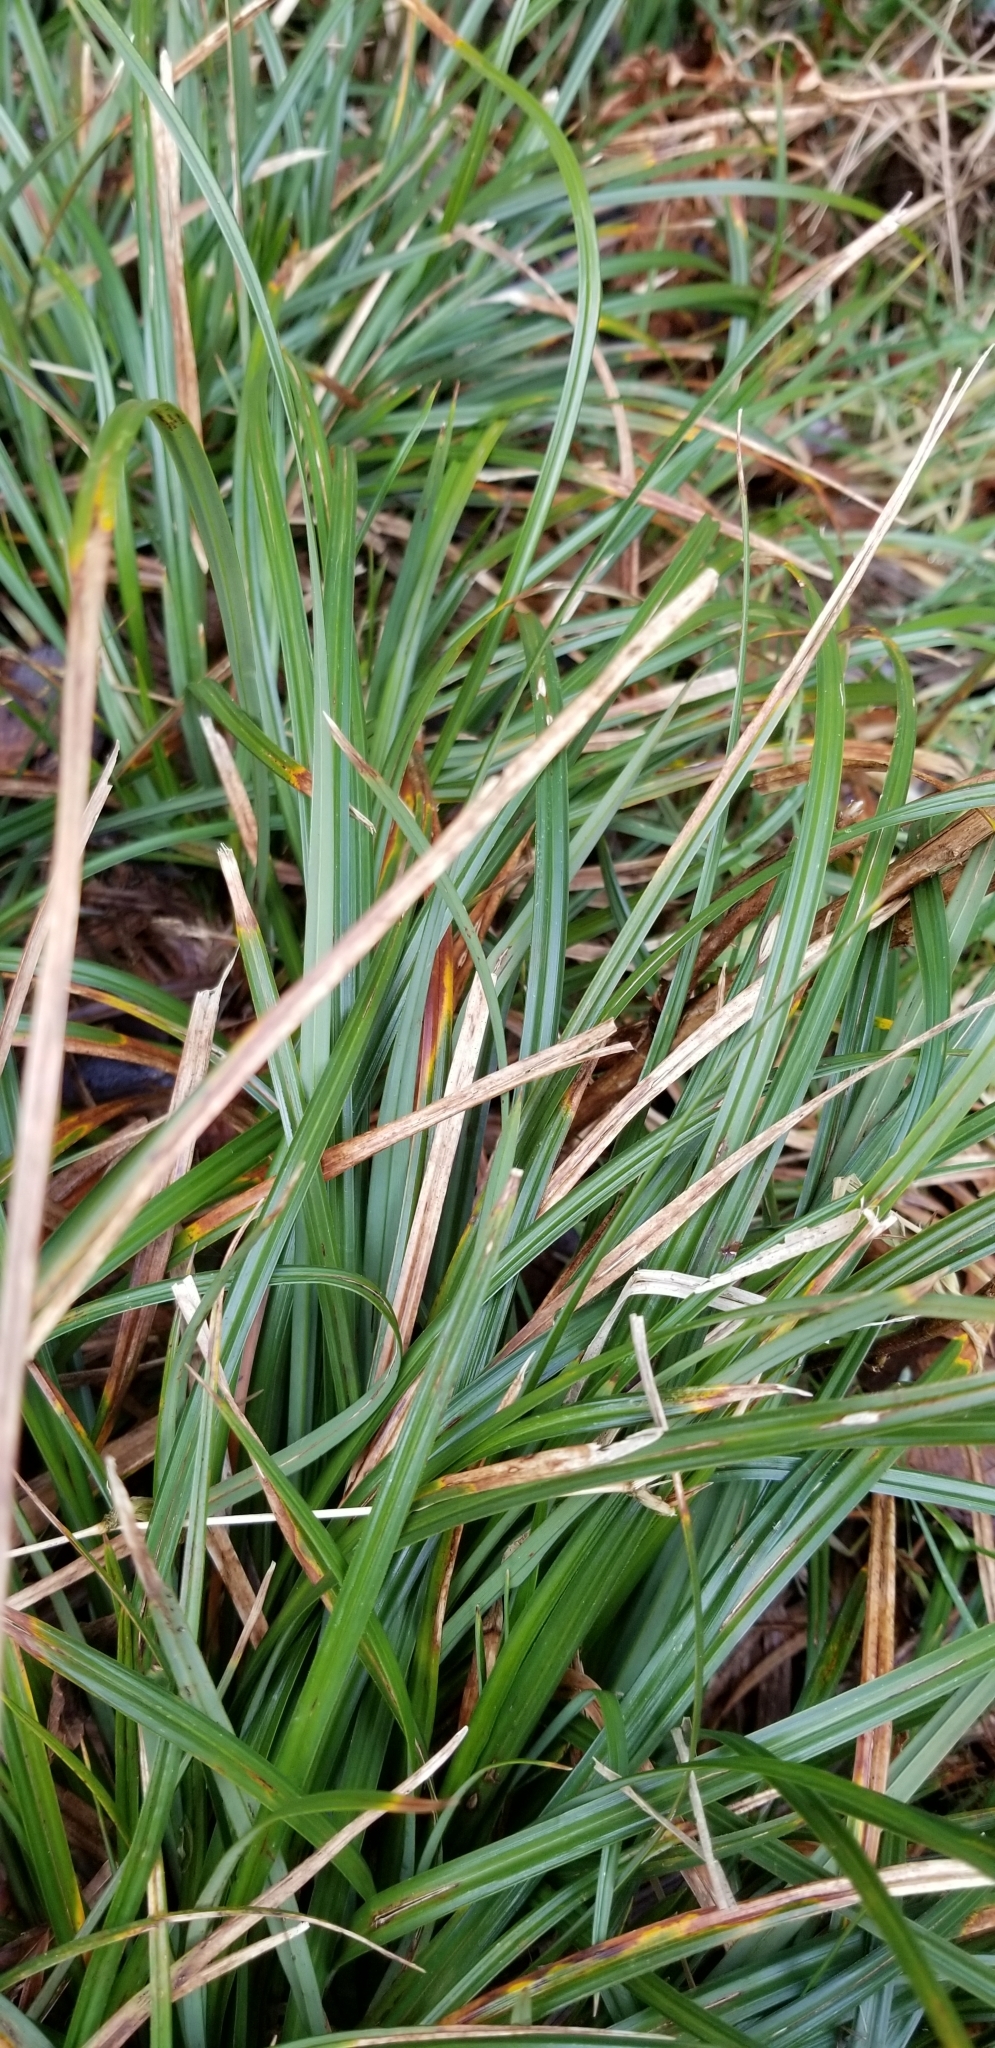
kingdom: Plantae
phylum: Tracheophyta
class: Liliopsida
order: Poales
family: Cyperaceae
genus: Carex
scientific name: Carex obnupta
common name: Slough sedge
